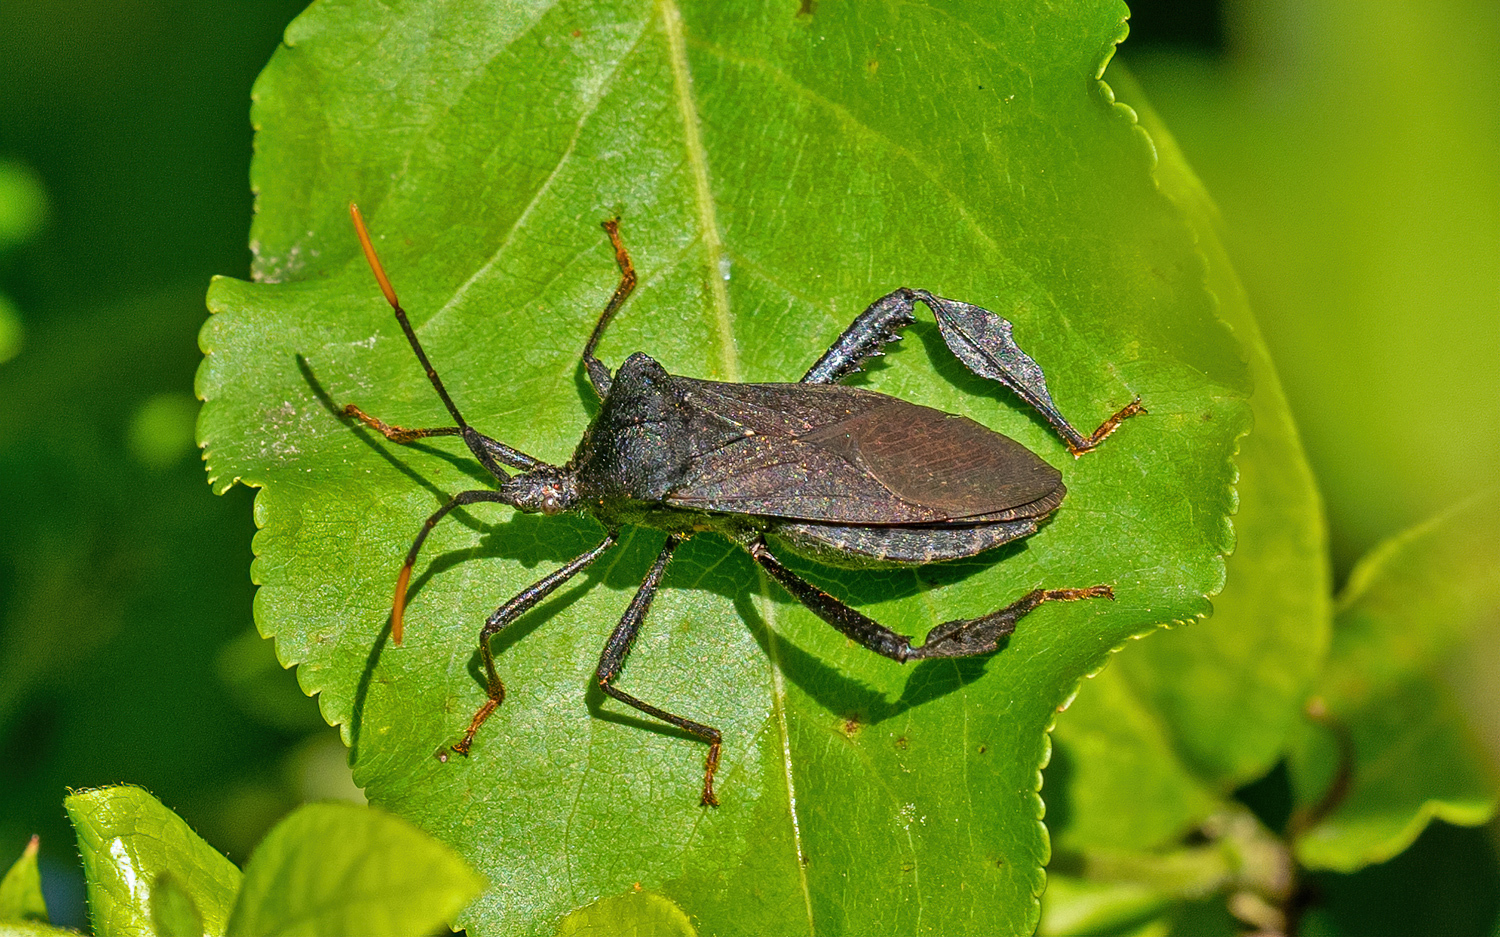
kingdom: Animalia
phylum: Arthropoda
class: Insecta
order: Hemiptera
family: Coreidae
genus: Acanthocephala
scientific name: Acanthocephala terminalis
